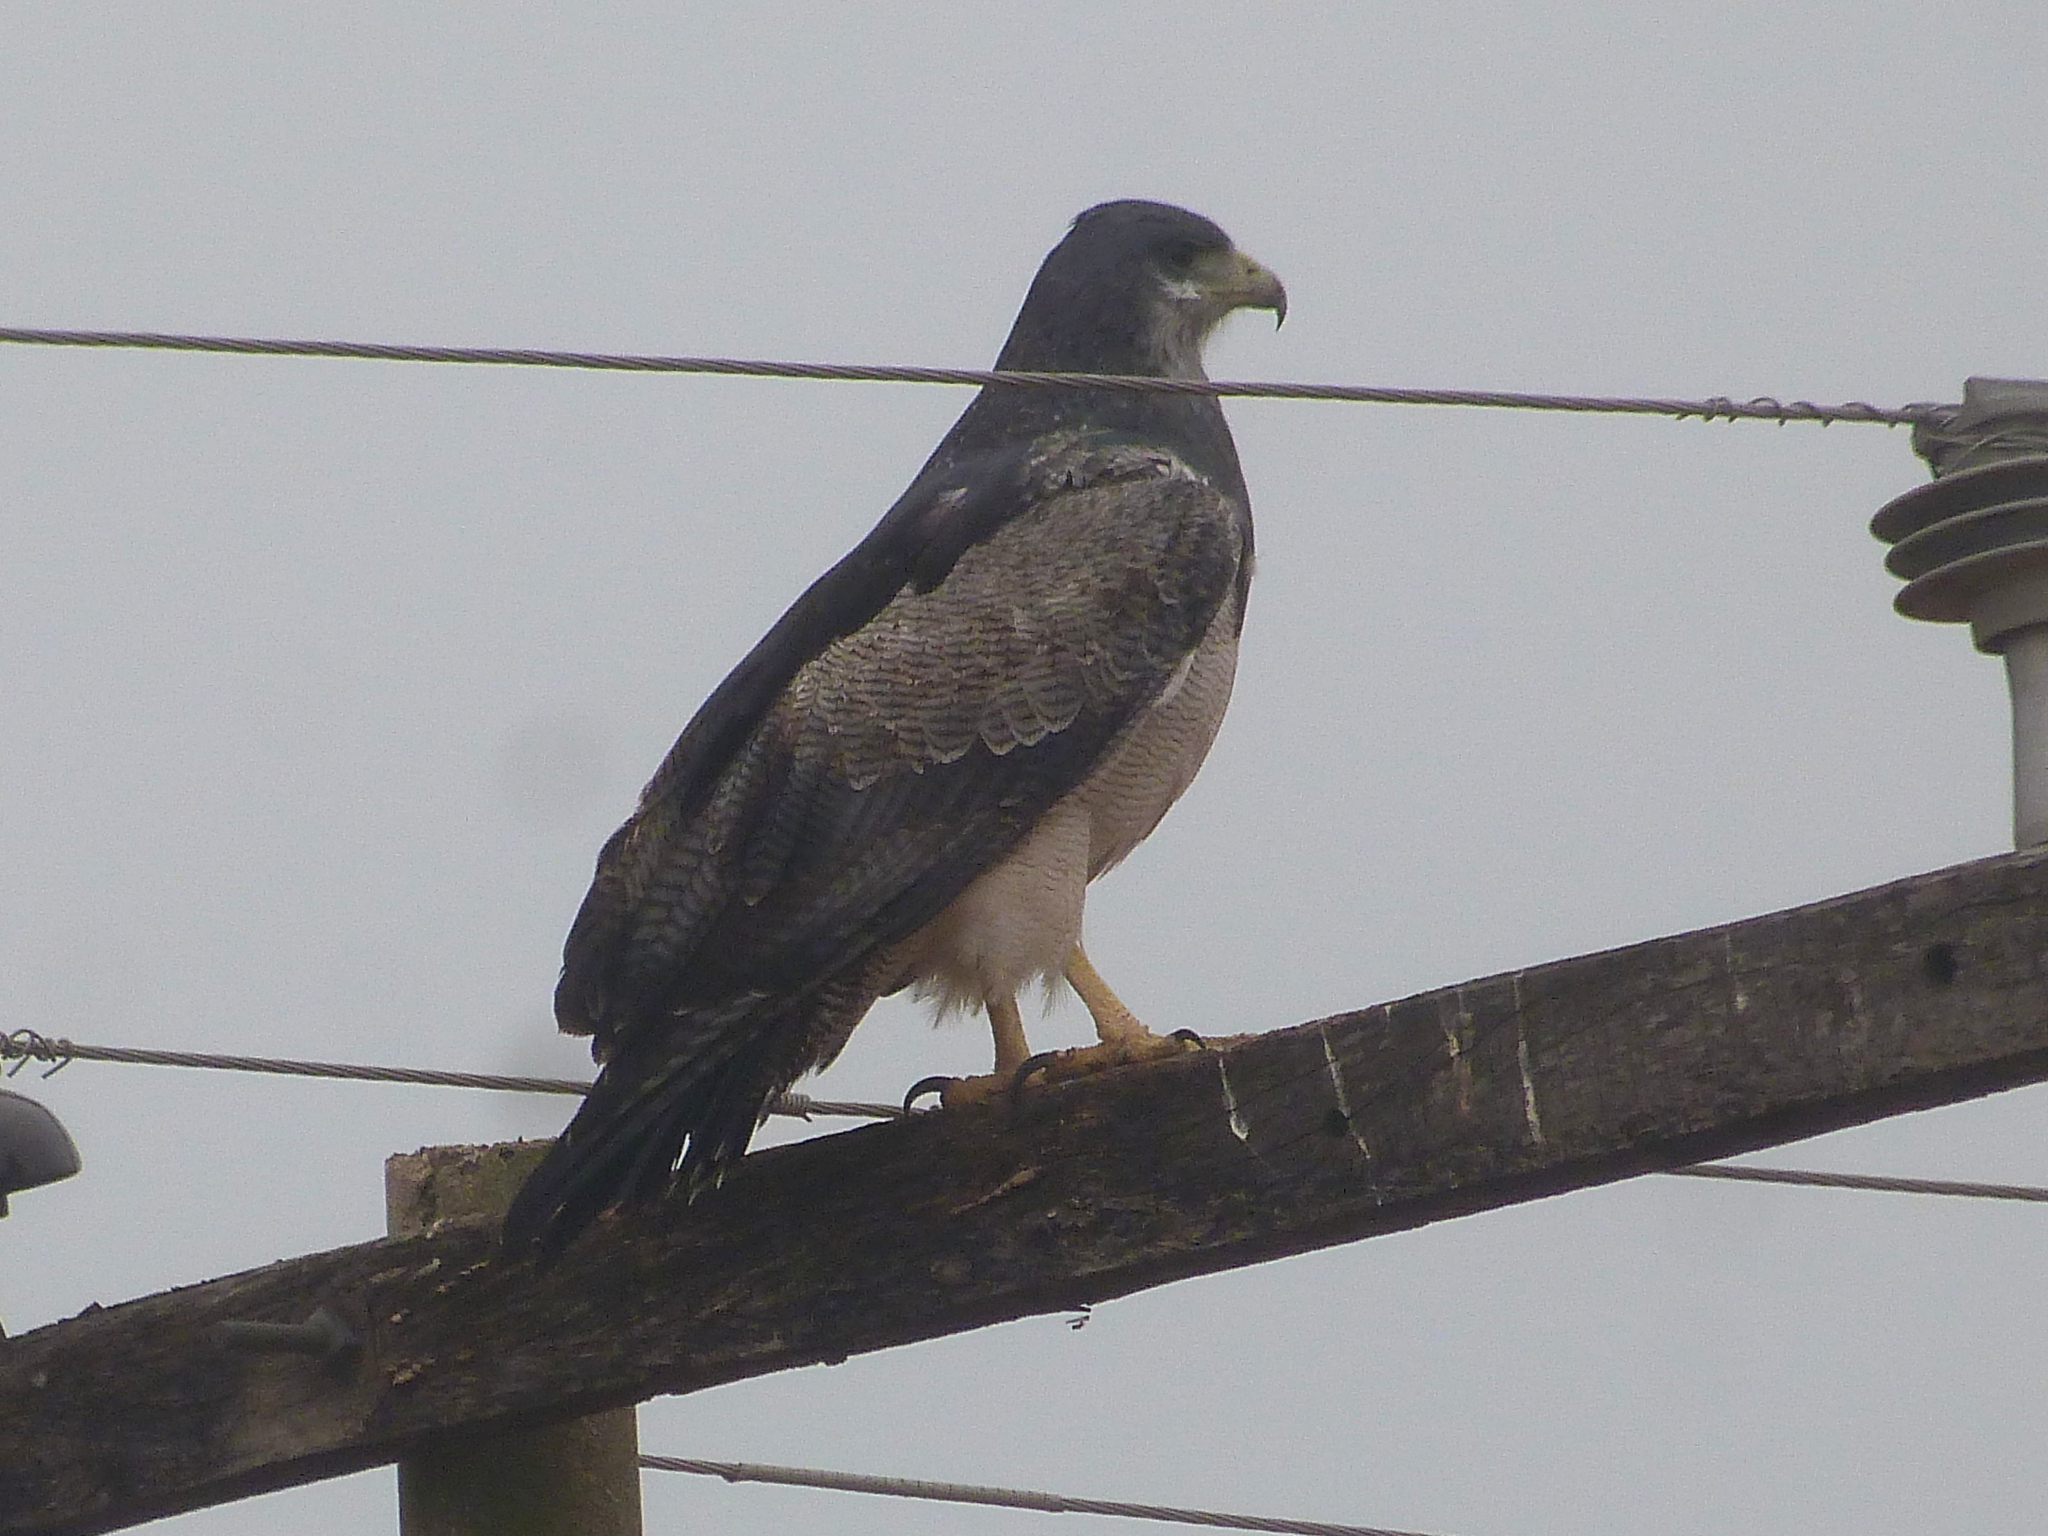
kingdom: Animalia
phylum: Chordata
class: Aves
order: Accipitriformes
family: Accipitridae
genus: Geranoaetus
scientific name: Geranoaetus melanoleucus
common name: Black-chested buzzard-eagle
